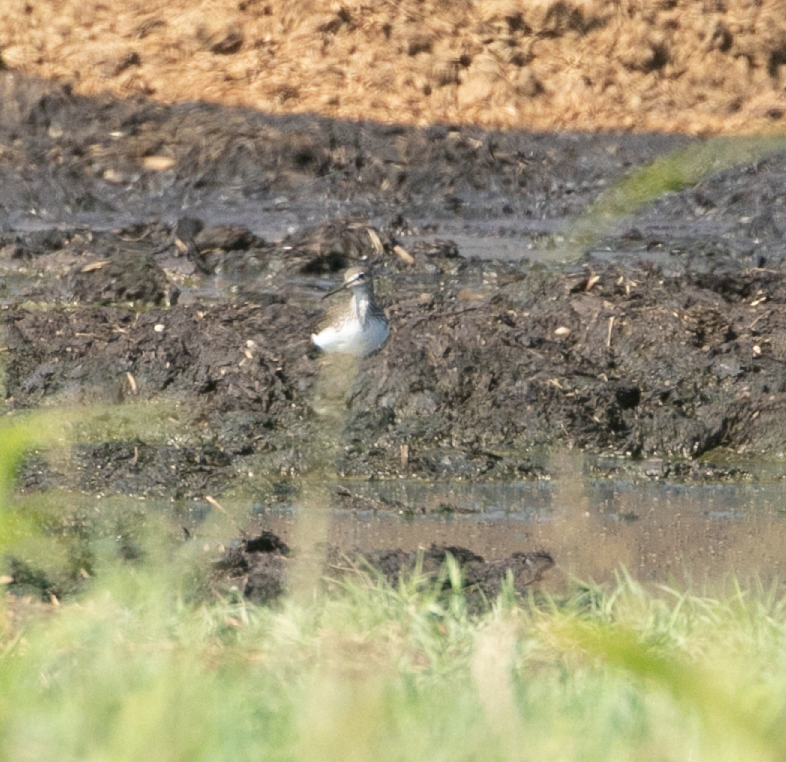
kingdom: Animalia
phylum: Chordata
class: Aves
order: Charadriiformes
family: Scolopacidae
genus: Tringa
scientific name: Tringa ochropus
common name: Green sandpiper
